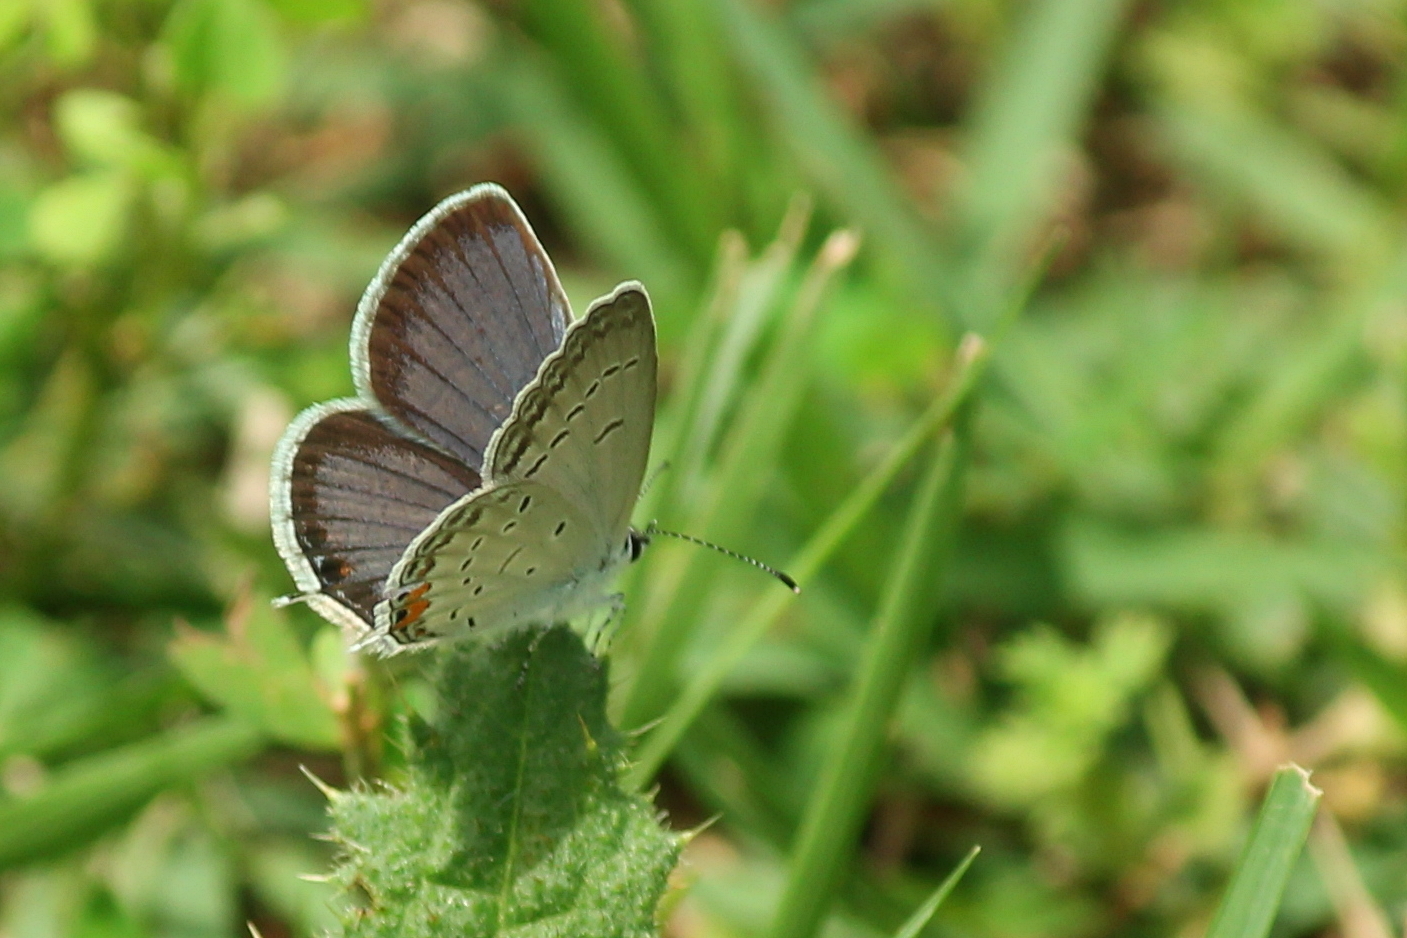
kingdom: Animalia
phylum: Arthropoda
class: Insecta
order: Lepidoptera
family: Lycaenidae
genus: Elkalyce
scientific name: Elkalyce comyntas
